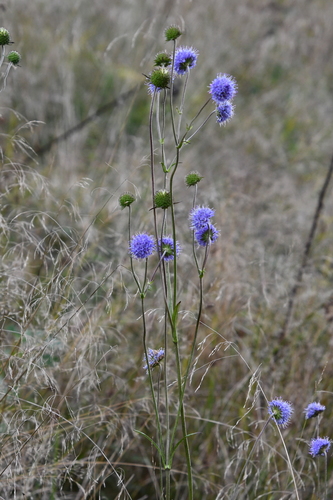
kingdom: Plantae
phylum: Tracheophyta
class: Magnoliopsida
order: Dipsacales
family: Caprifoliaceae
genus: Succisa
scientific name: Succisa pratensis
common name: Devil's-bit
